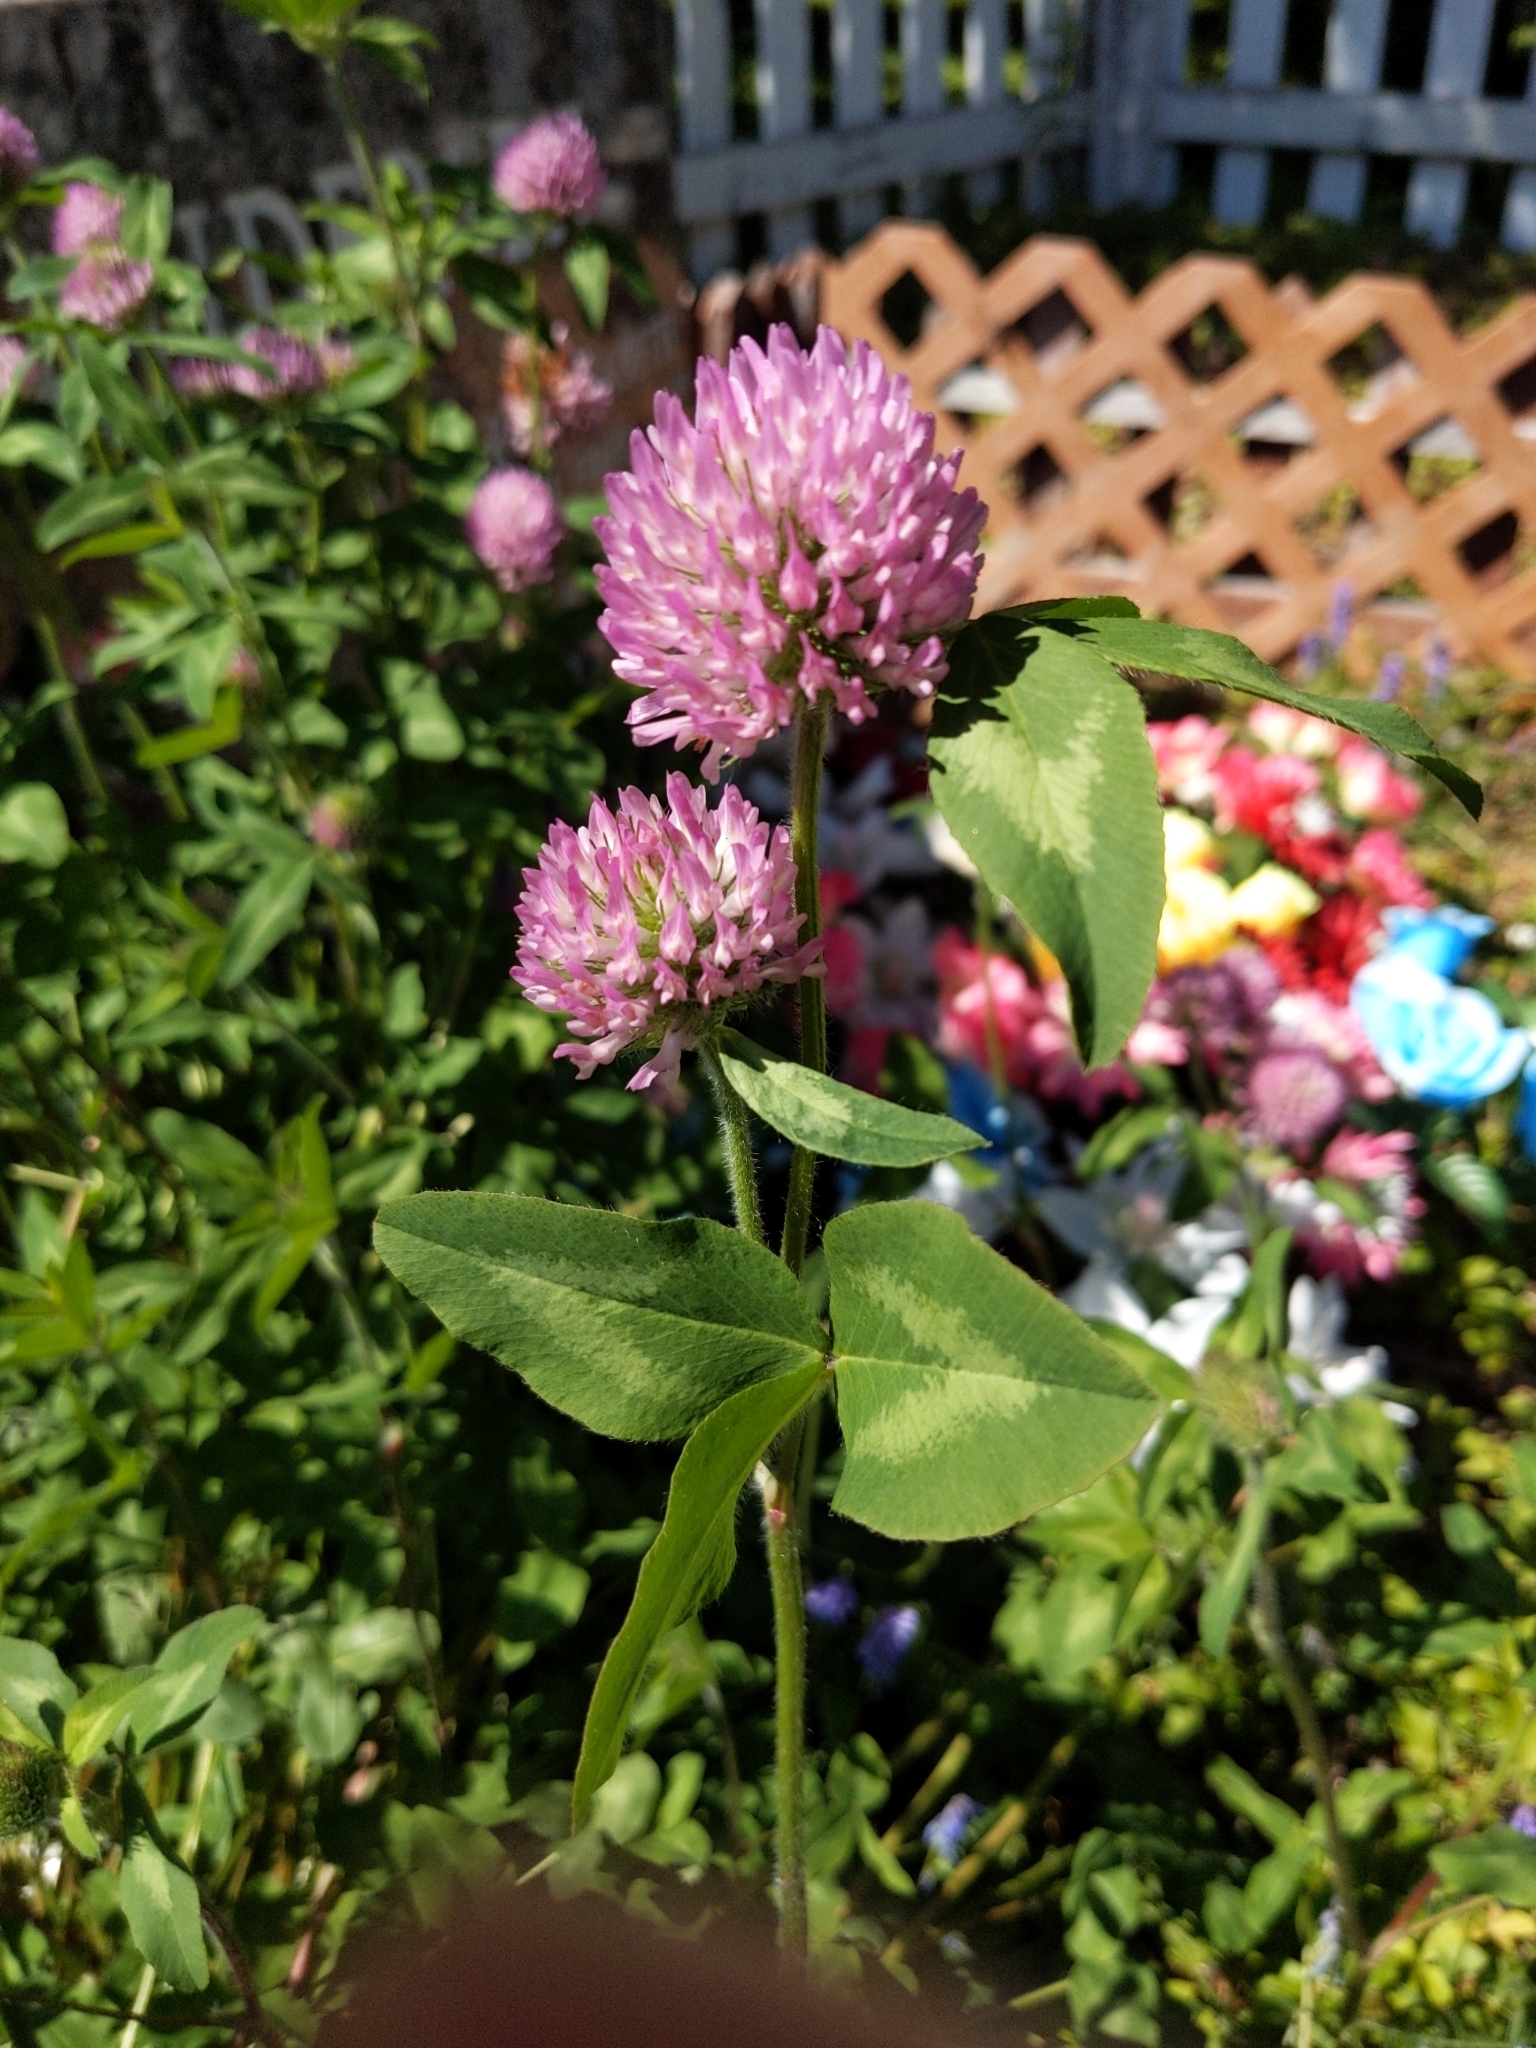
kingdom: Plantae
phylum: Tracheophyta
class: Magnoliopsida
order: Fabales
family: Fabaceae
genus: Trifolium
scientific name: Trifolium pratense
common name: Red clover
